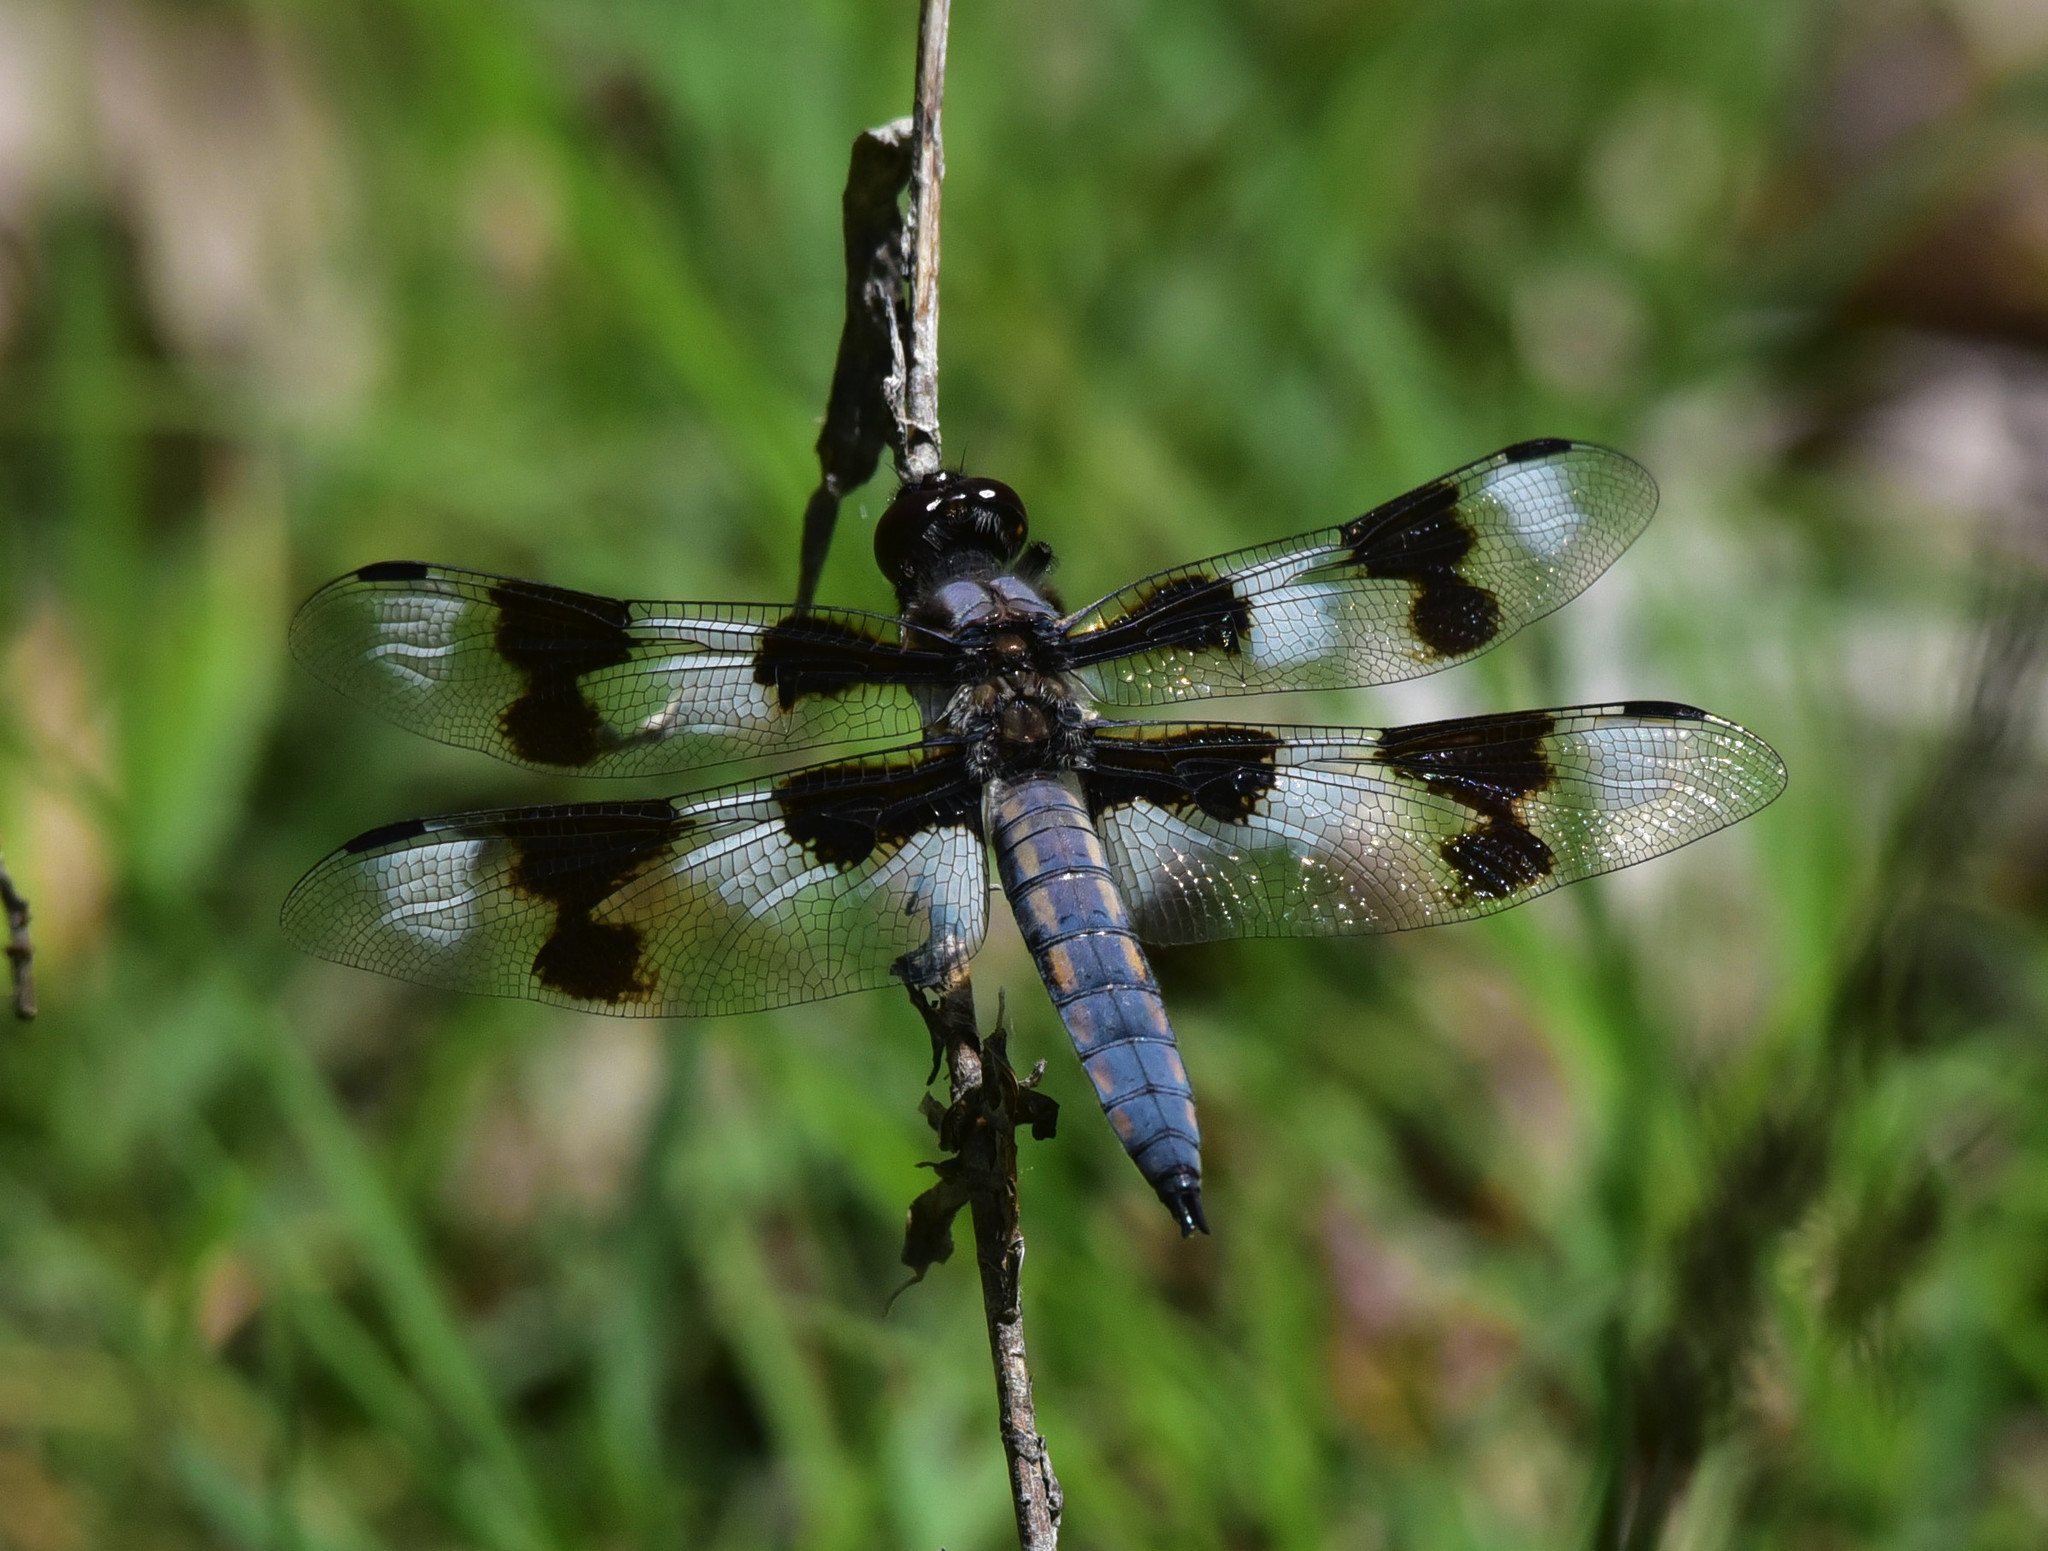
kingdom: Animalia
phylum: Arthropoda
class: Insecta
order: Odonata
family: Libellulidae
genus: Libellula
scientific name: Libellula forensis
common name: Eight-spotted skimmer
